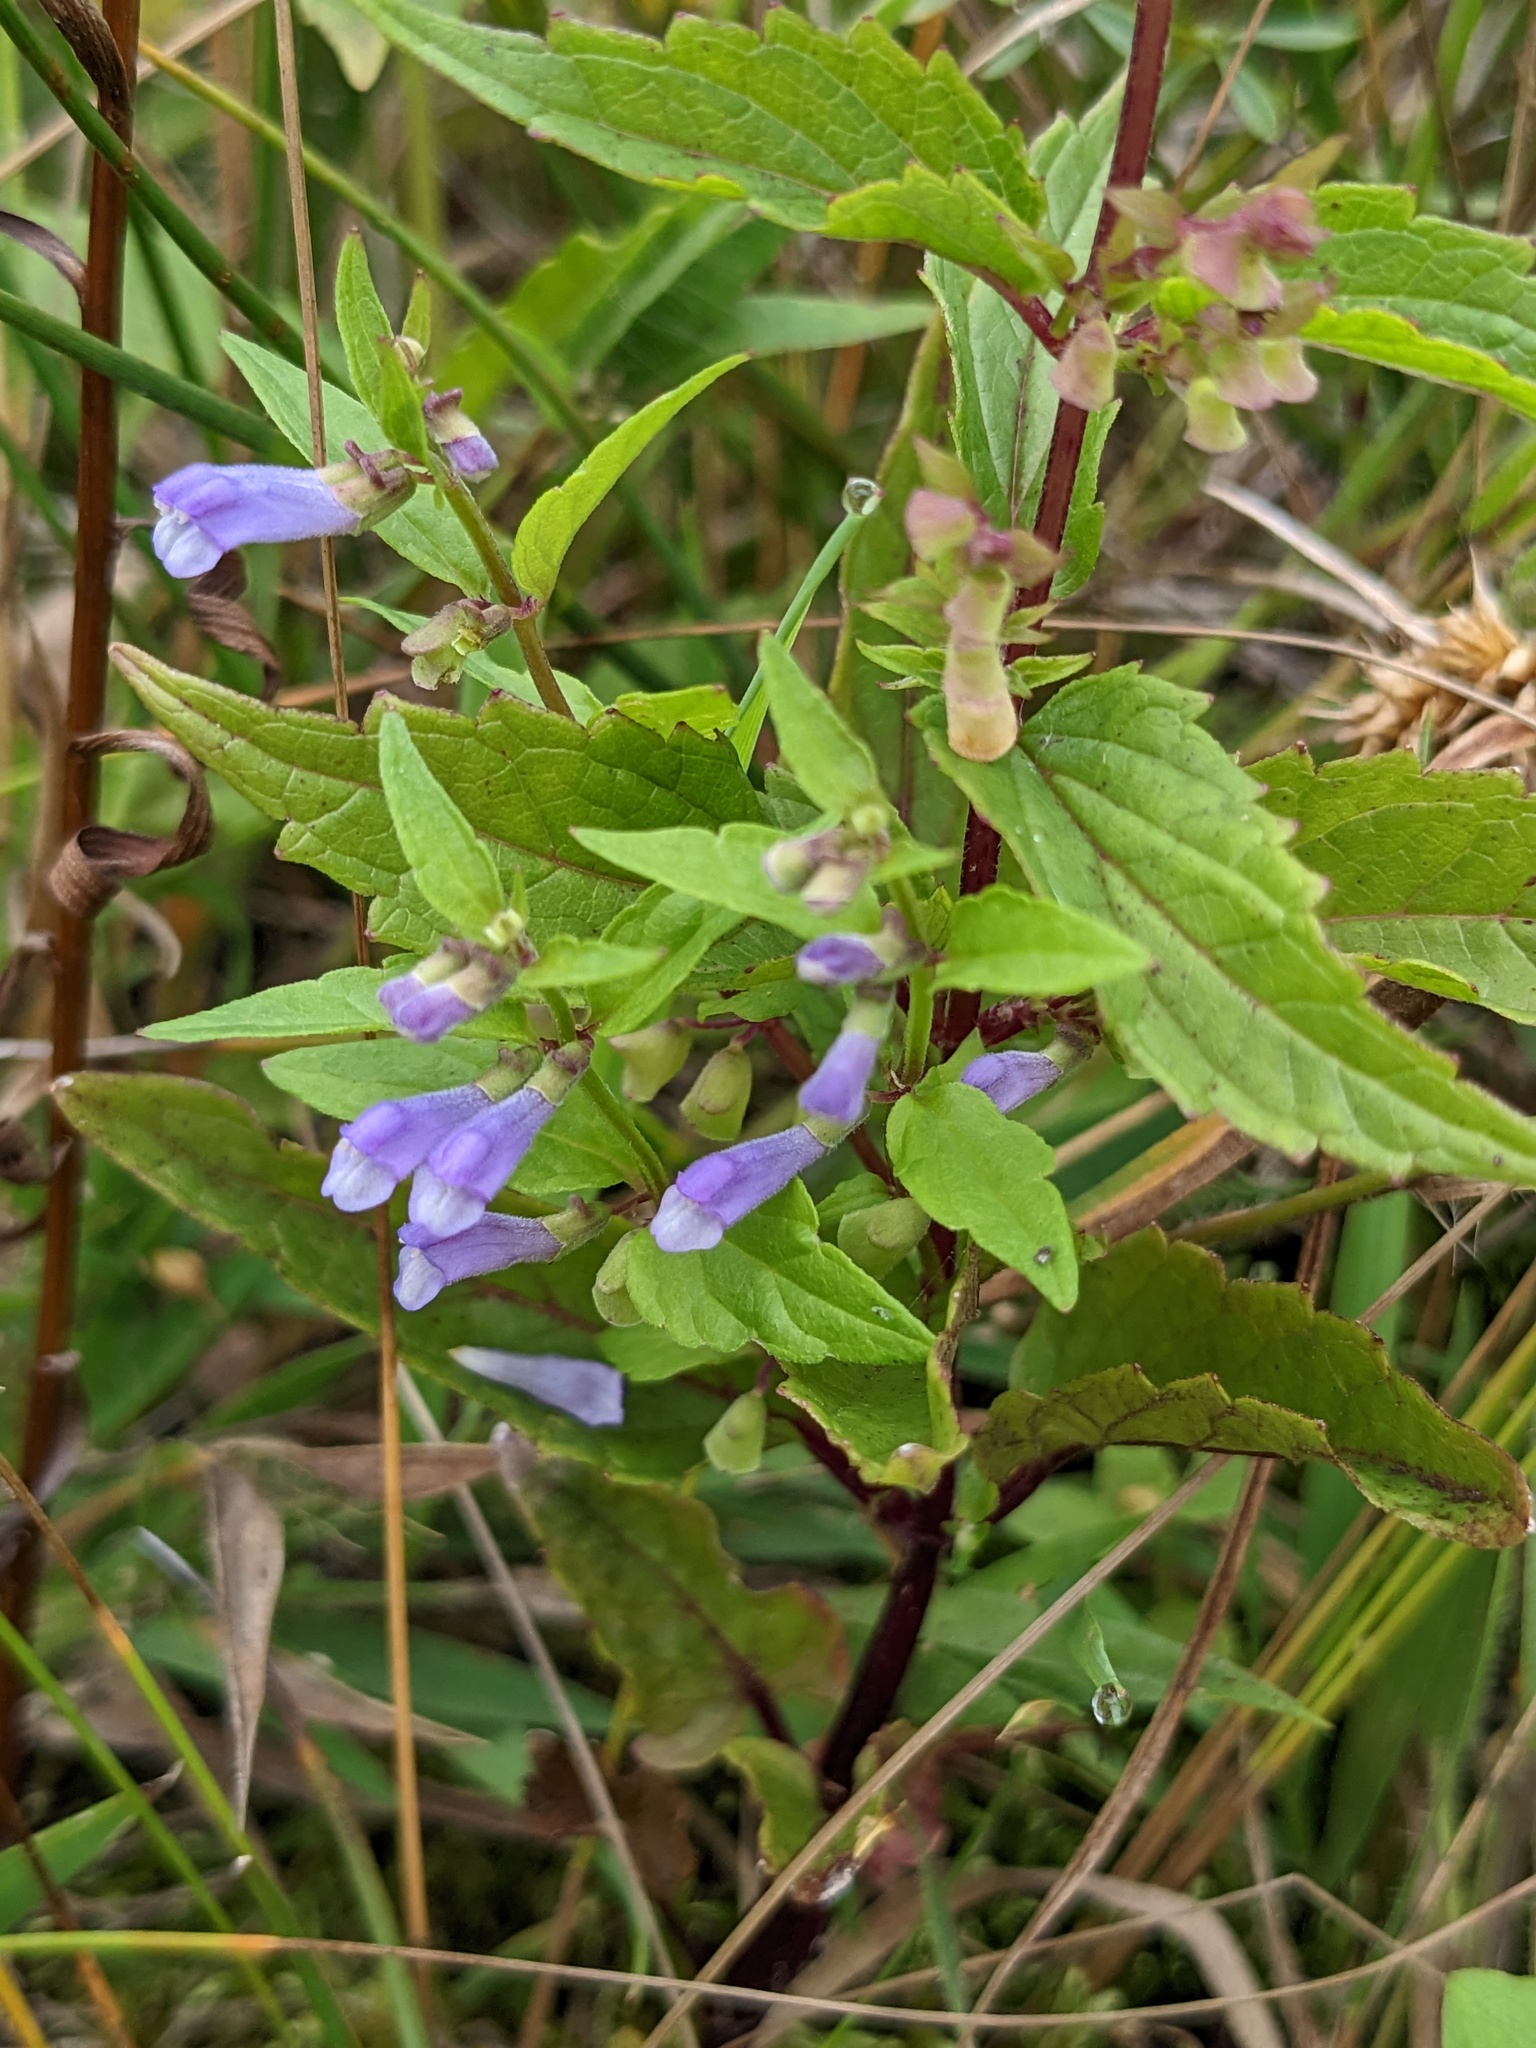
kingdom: Plantae
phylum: Tracheophyta
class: Magnoliopsida
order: Lamiales
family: Lamiaceae
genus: Scutellaria
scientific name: Scutellaria lateriflora
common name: Blue skullcap
